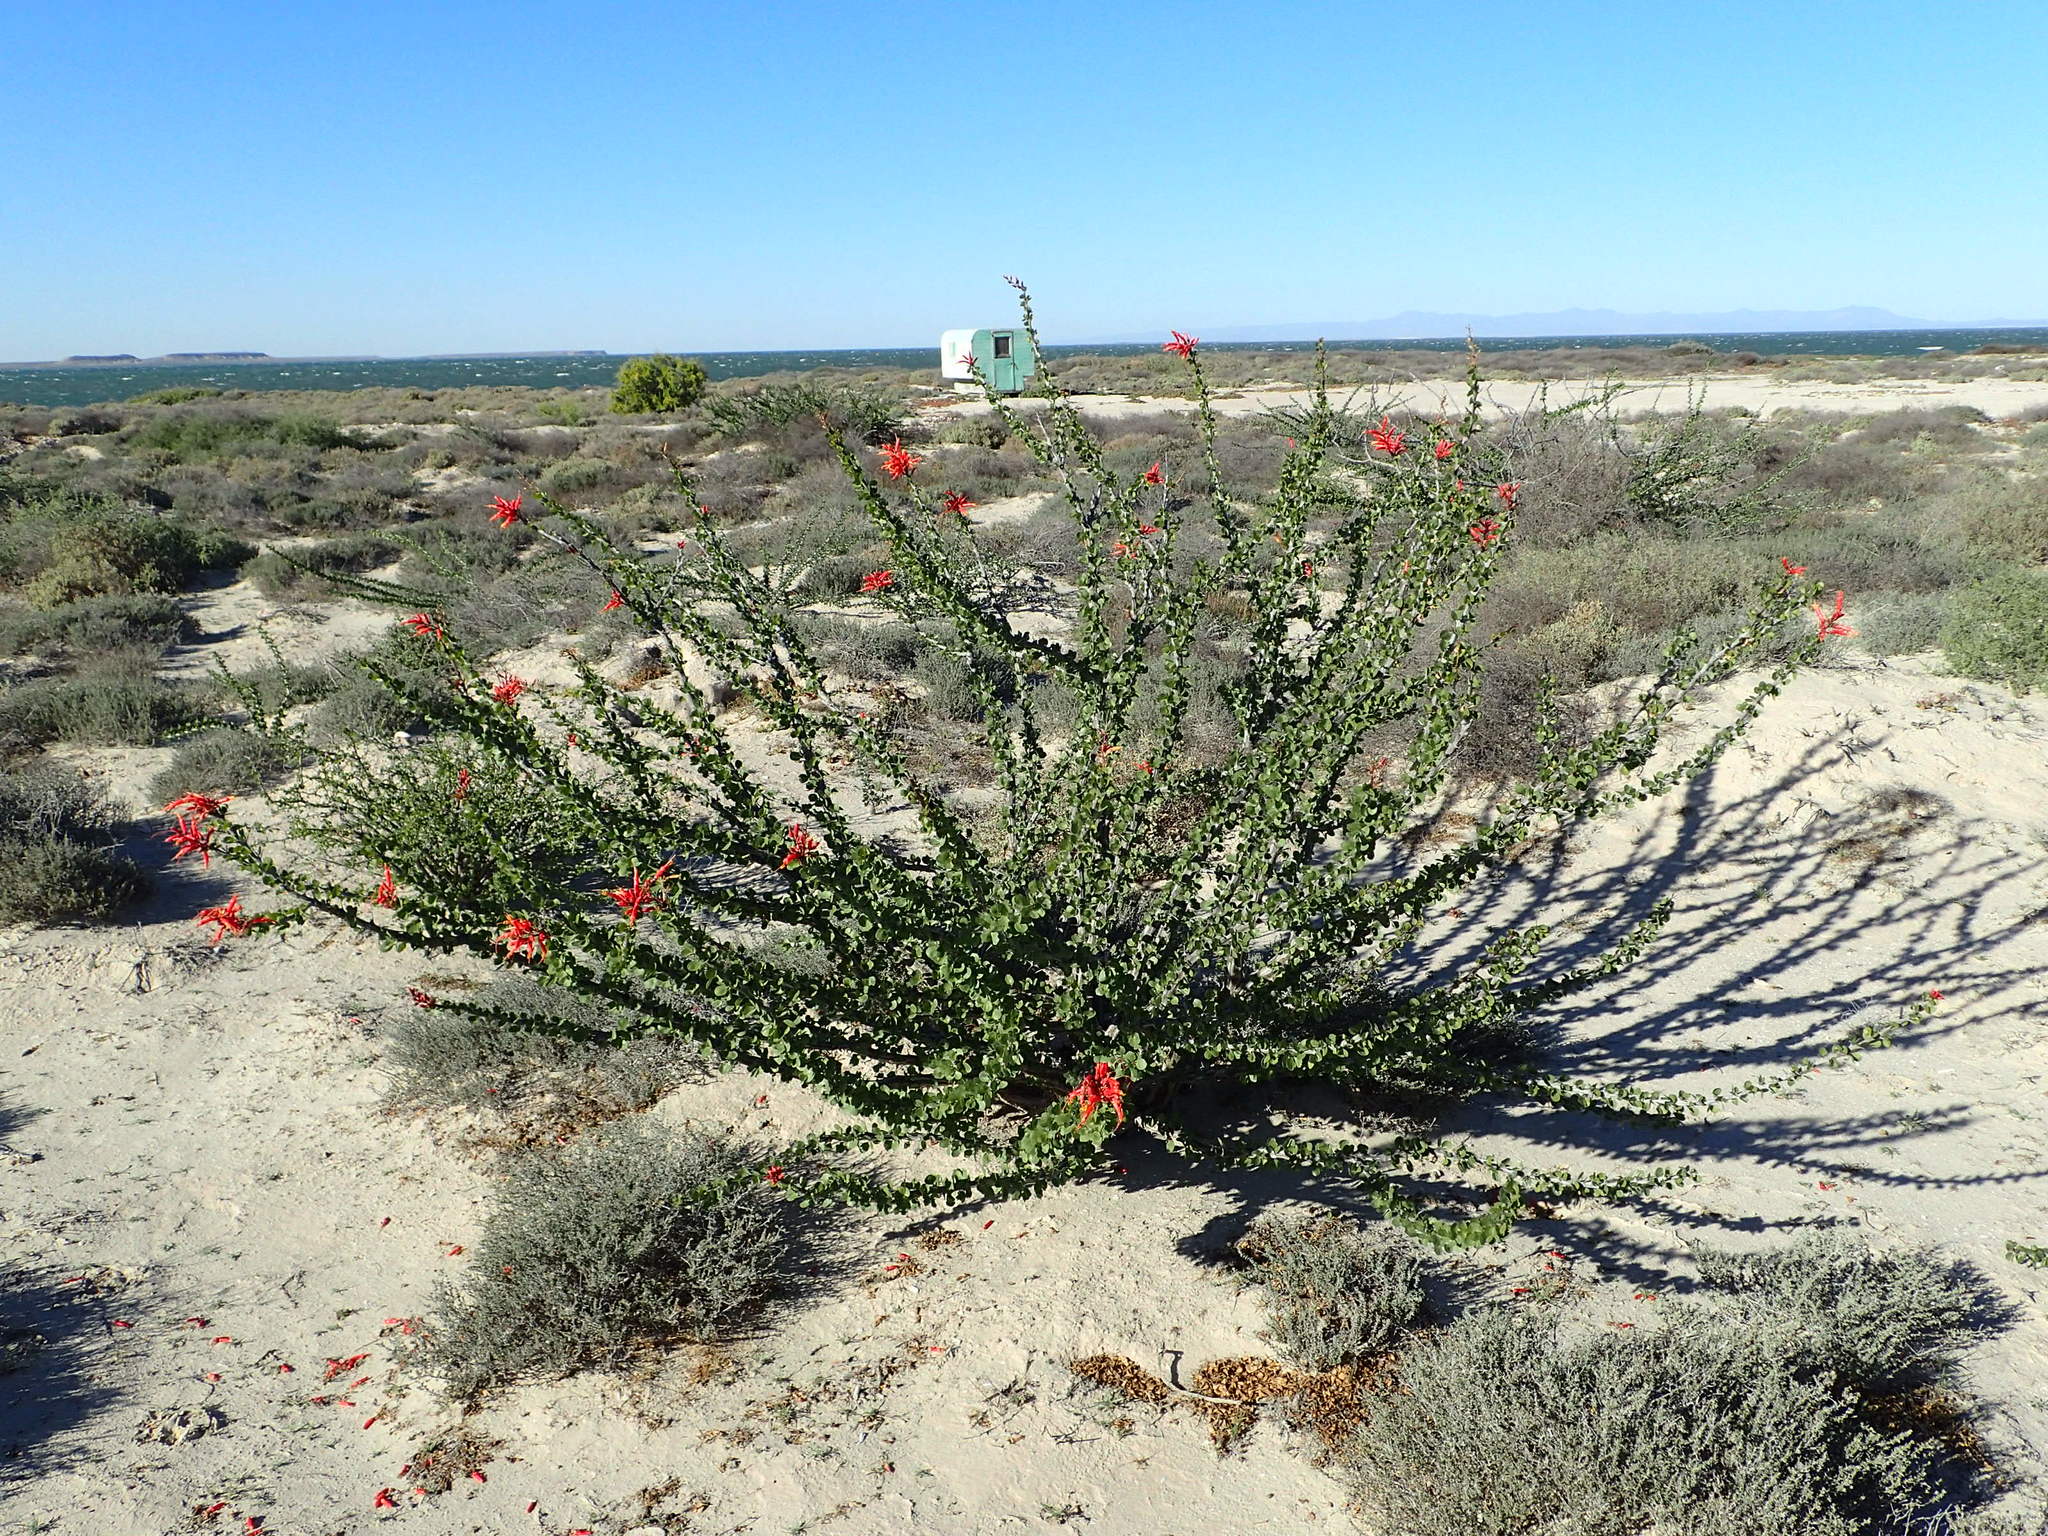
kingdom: Plantae
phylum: Tracheophyta
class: Magnoliopsida
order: Ericales
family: Fouquieriaceae
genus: Fouquieria
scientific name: Fouquieria diguetii
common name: Adam's tree
